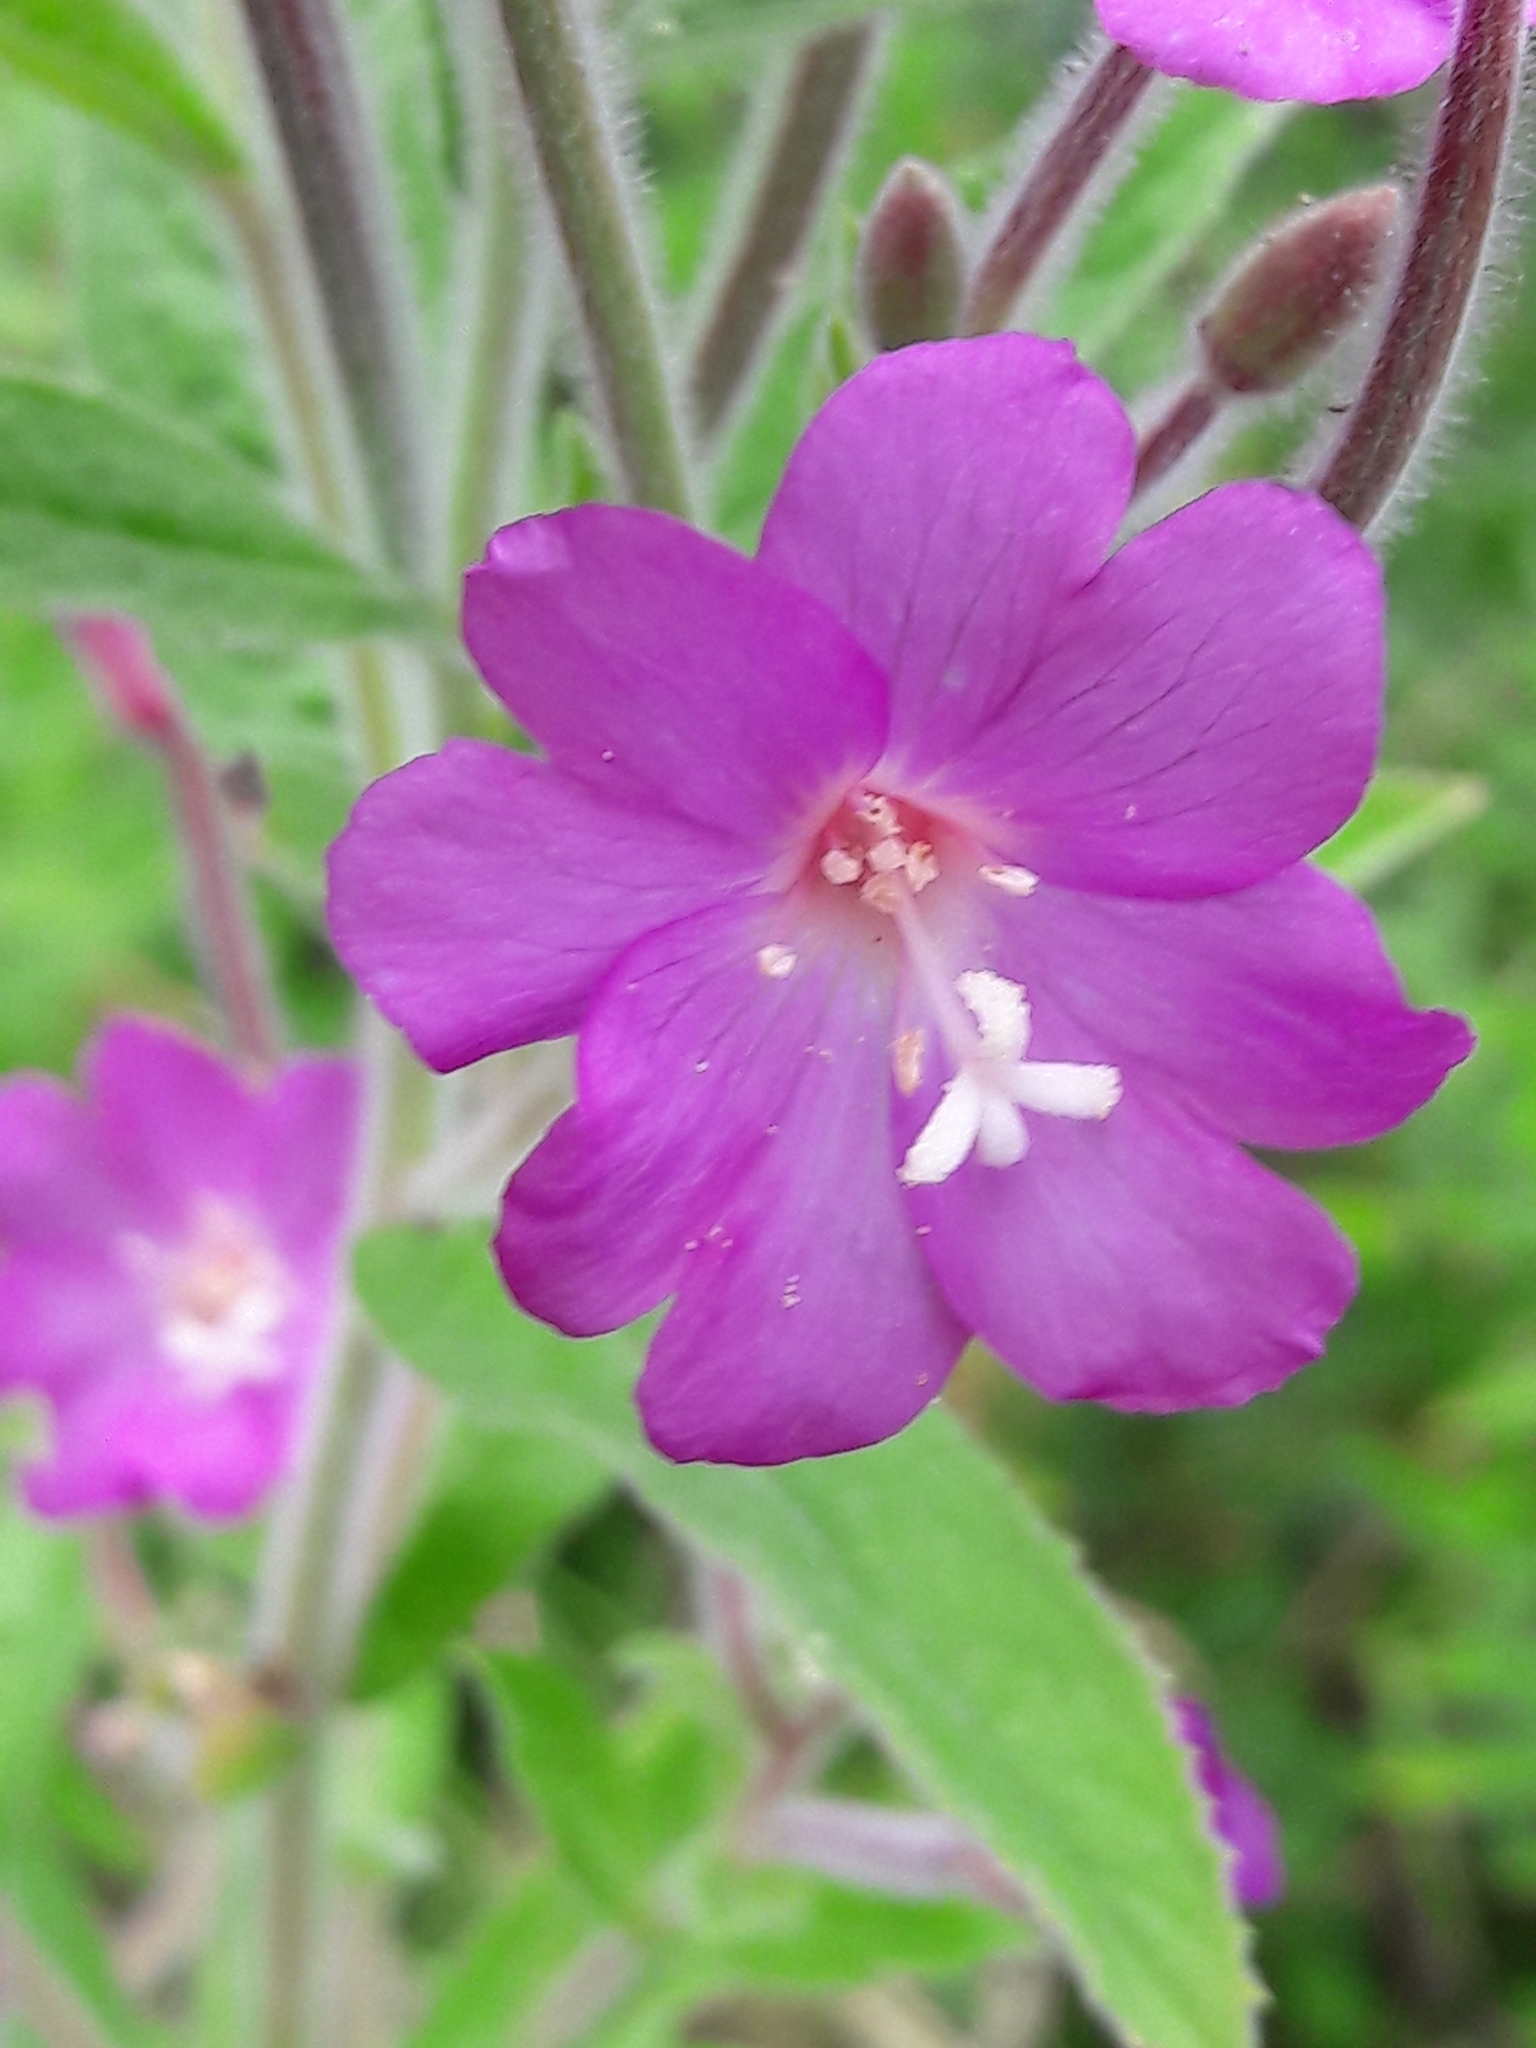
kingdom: Plantae
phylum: Tracheophyta
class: Magnoliopsida
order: Myrtales
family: Onagraceae
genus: Epilobium
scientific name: Epilobium hirsutum
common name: Great willowherb
